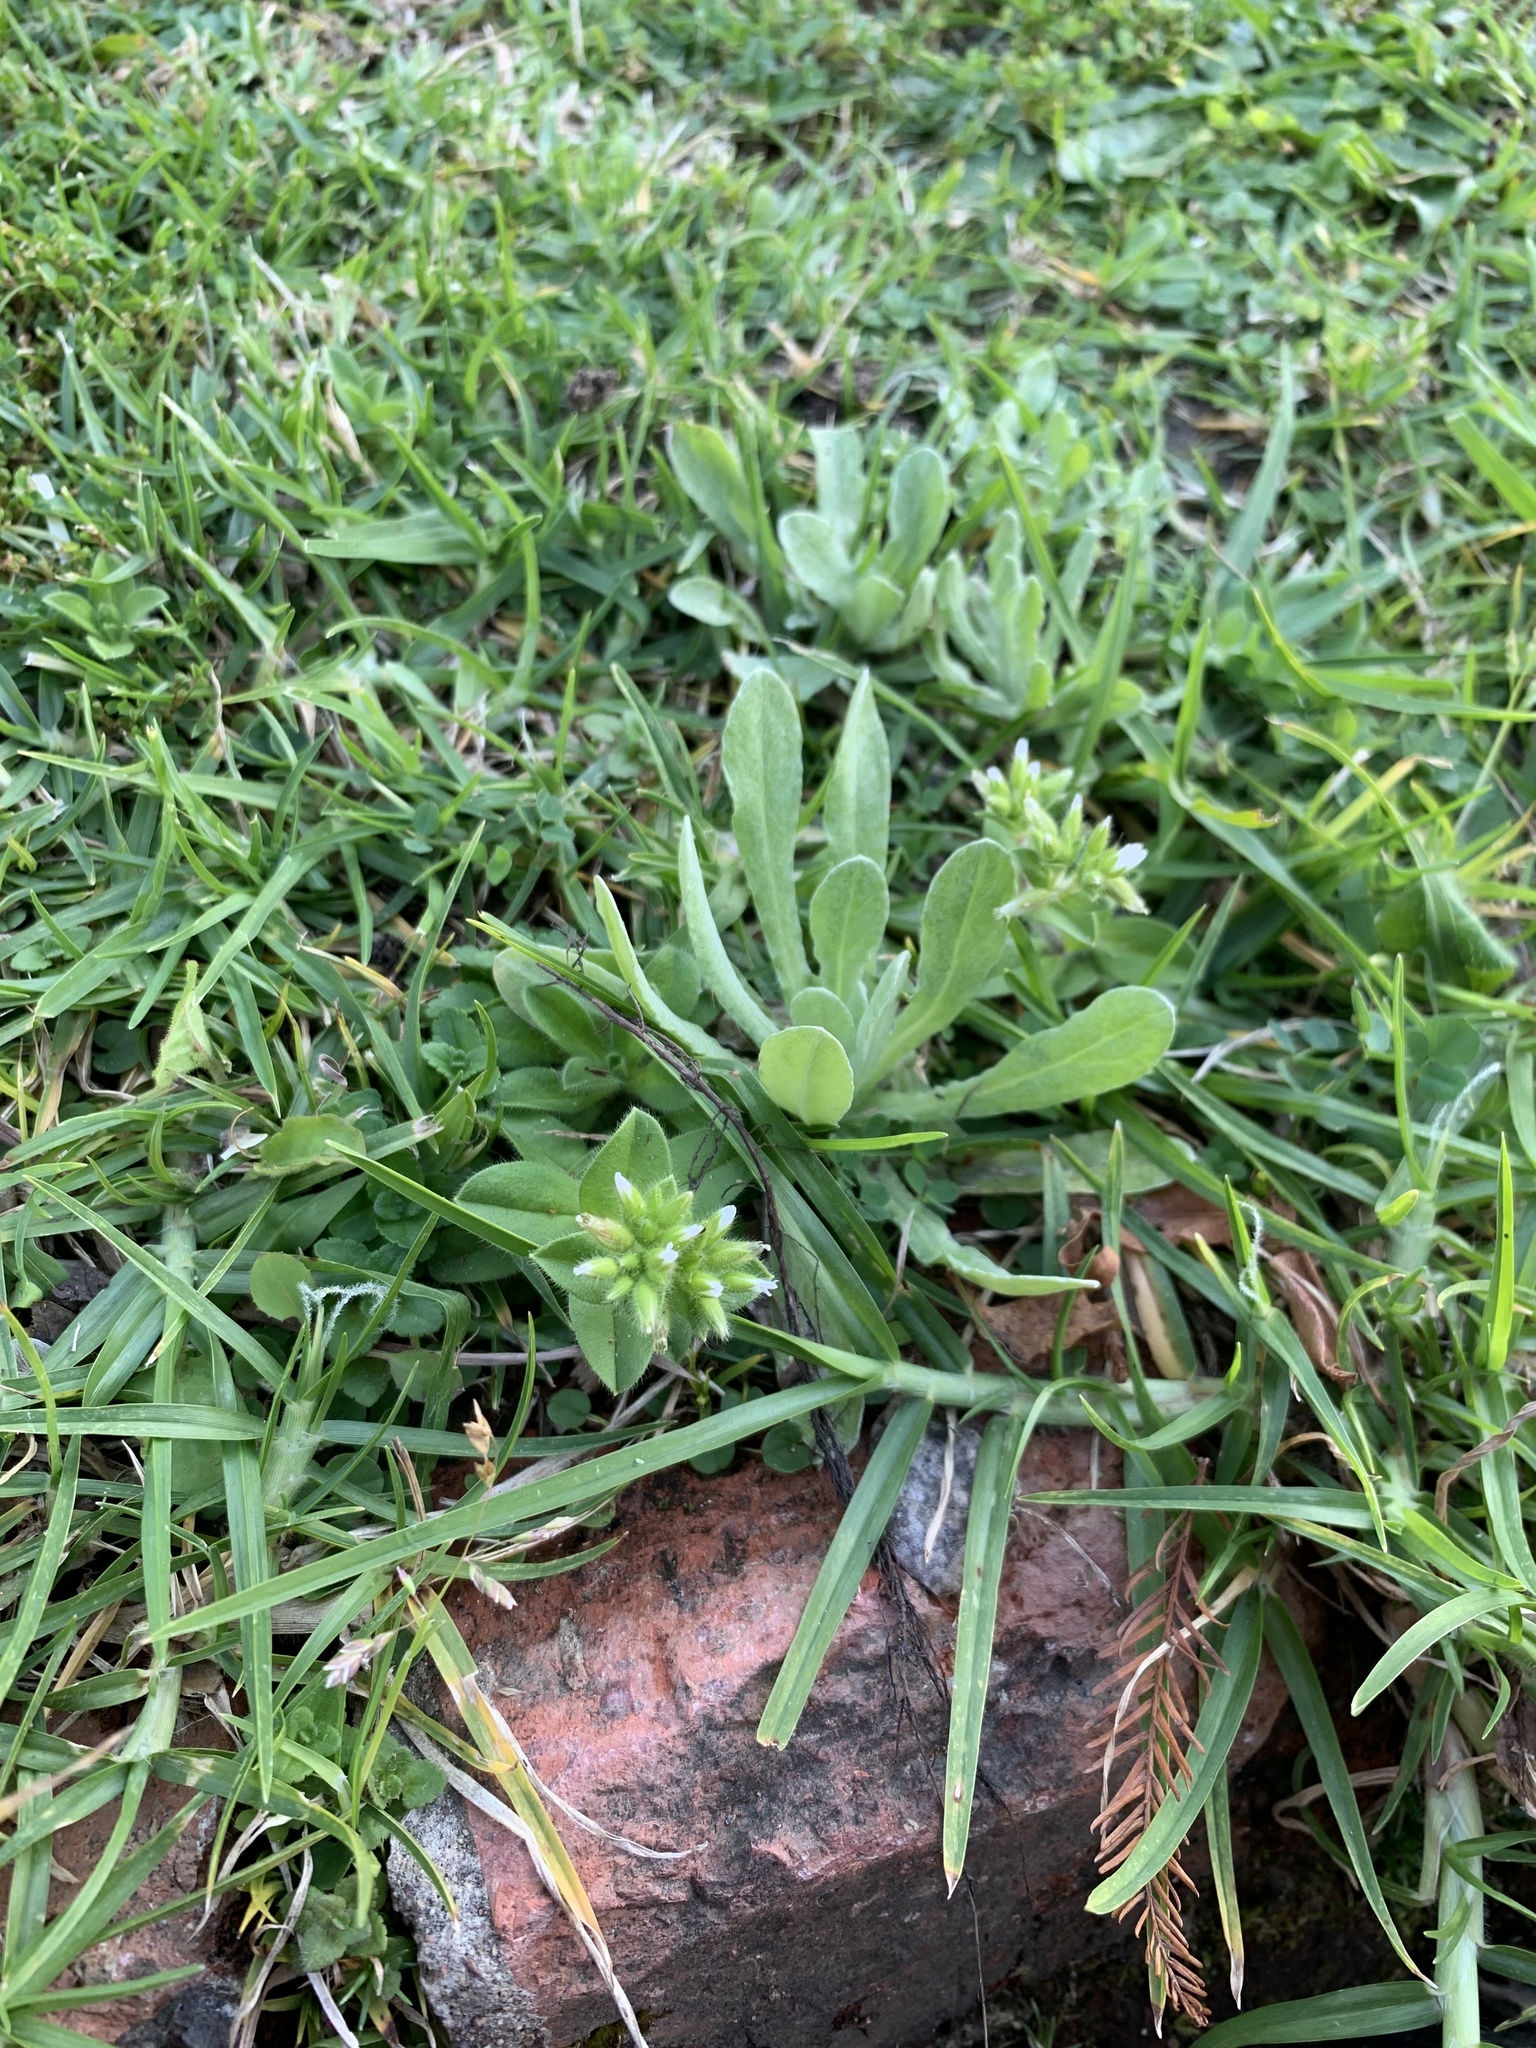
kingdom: Plantae
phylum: Tracheophyta
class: Magnoliopsida
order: Caryophyllales
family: Caryophyllaceae
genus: Cerastium
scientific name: Cerastium glomeratum
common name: Sticky chickweed
